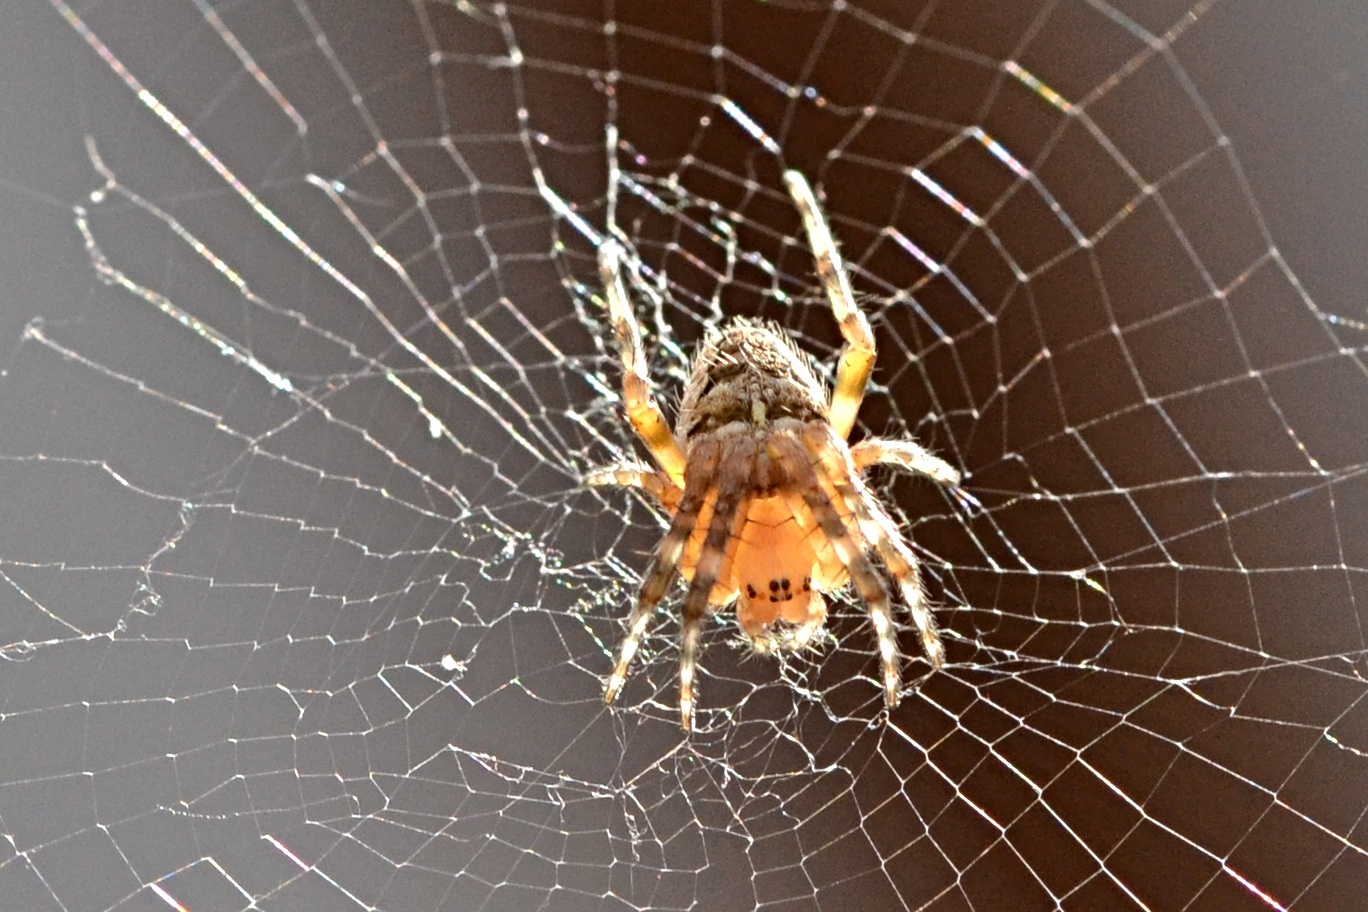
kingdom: Animalia
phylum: Arthropoda
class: Arachnida
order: Araneae
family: Araneidae
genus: Araneus
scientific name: Araneus diadematus
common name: Cross orbweaver
